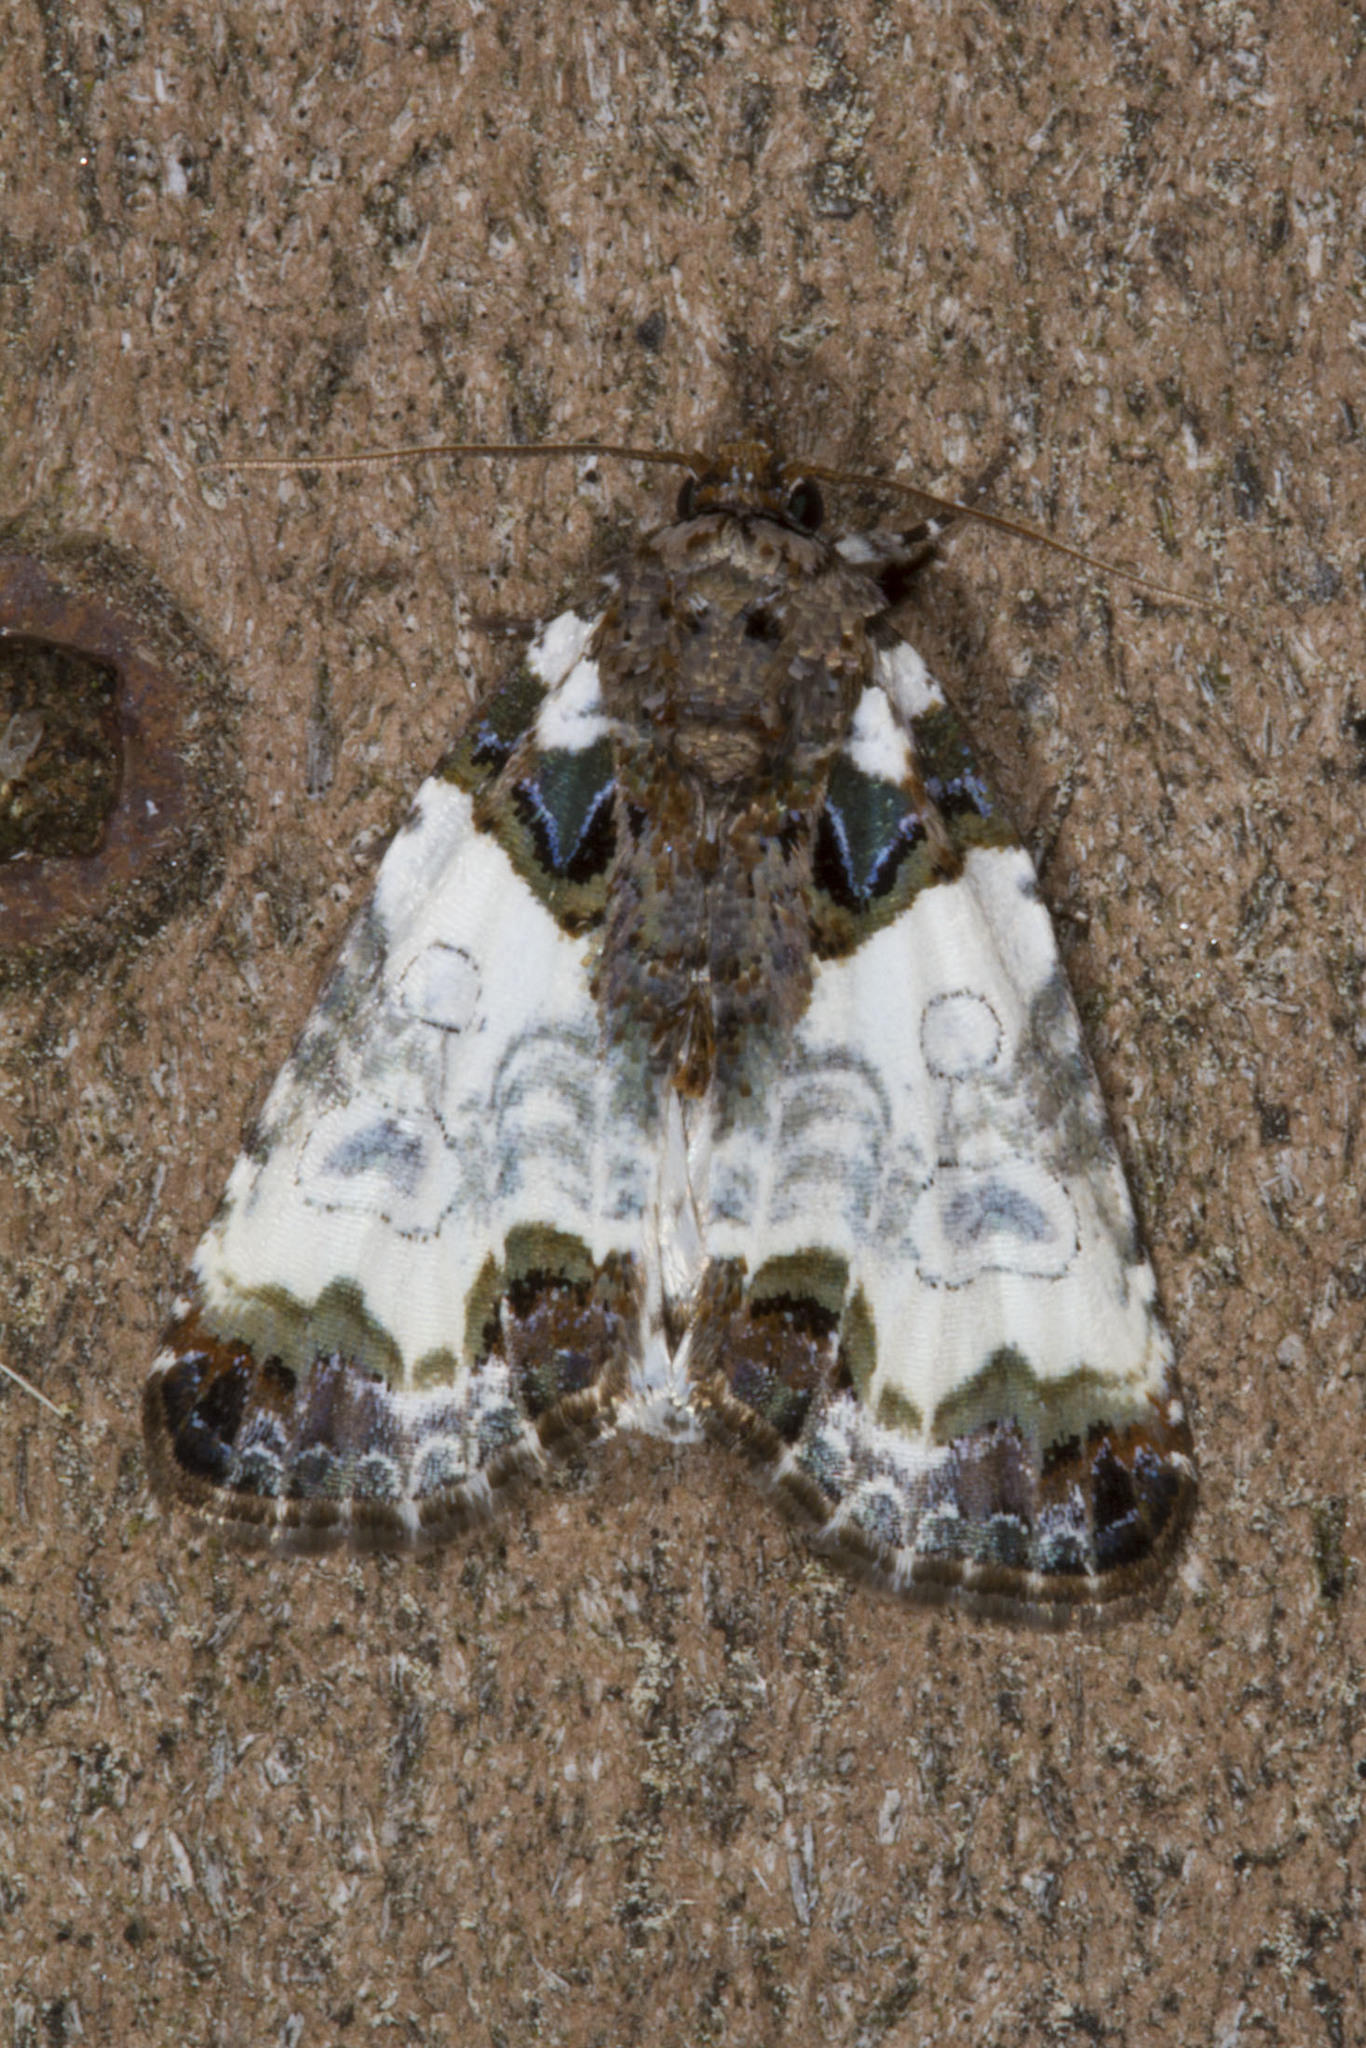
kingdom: Animalia
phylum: Arthropoda
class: Insecta
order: Lepidoptera
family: Noctuidae
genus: Cerma
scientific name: Cerma cerintha
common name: Tufted bird-dropping moth
